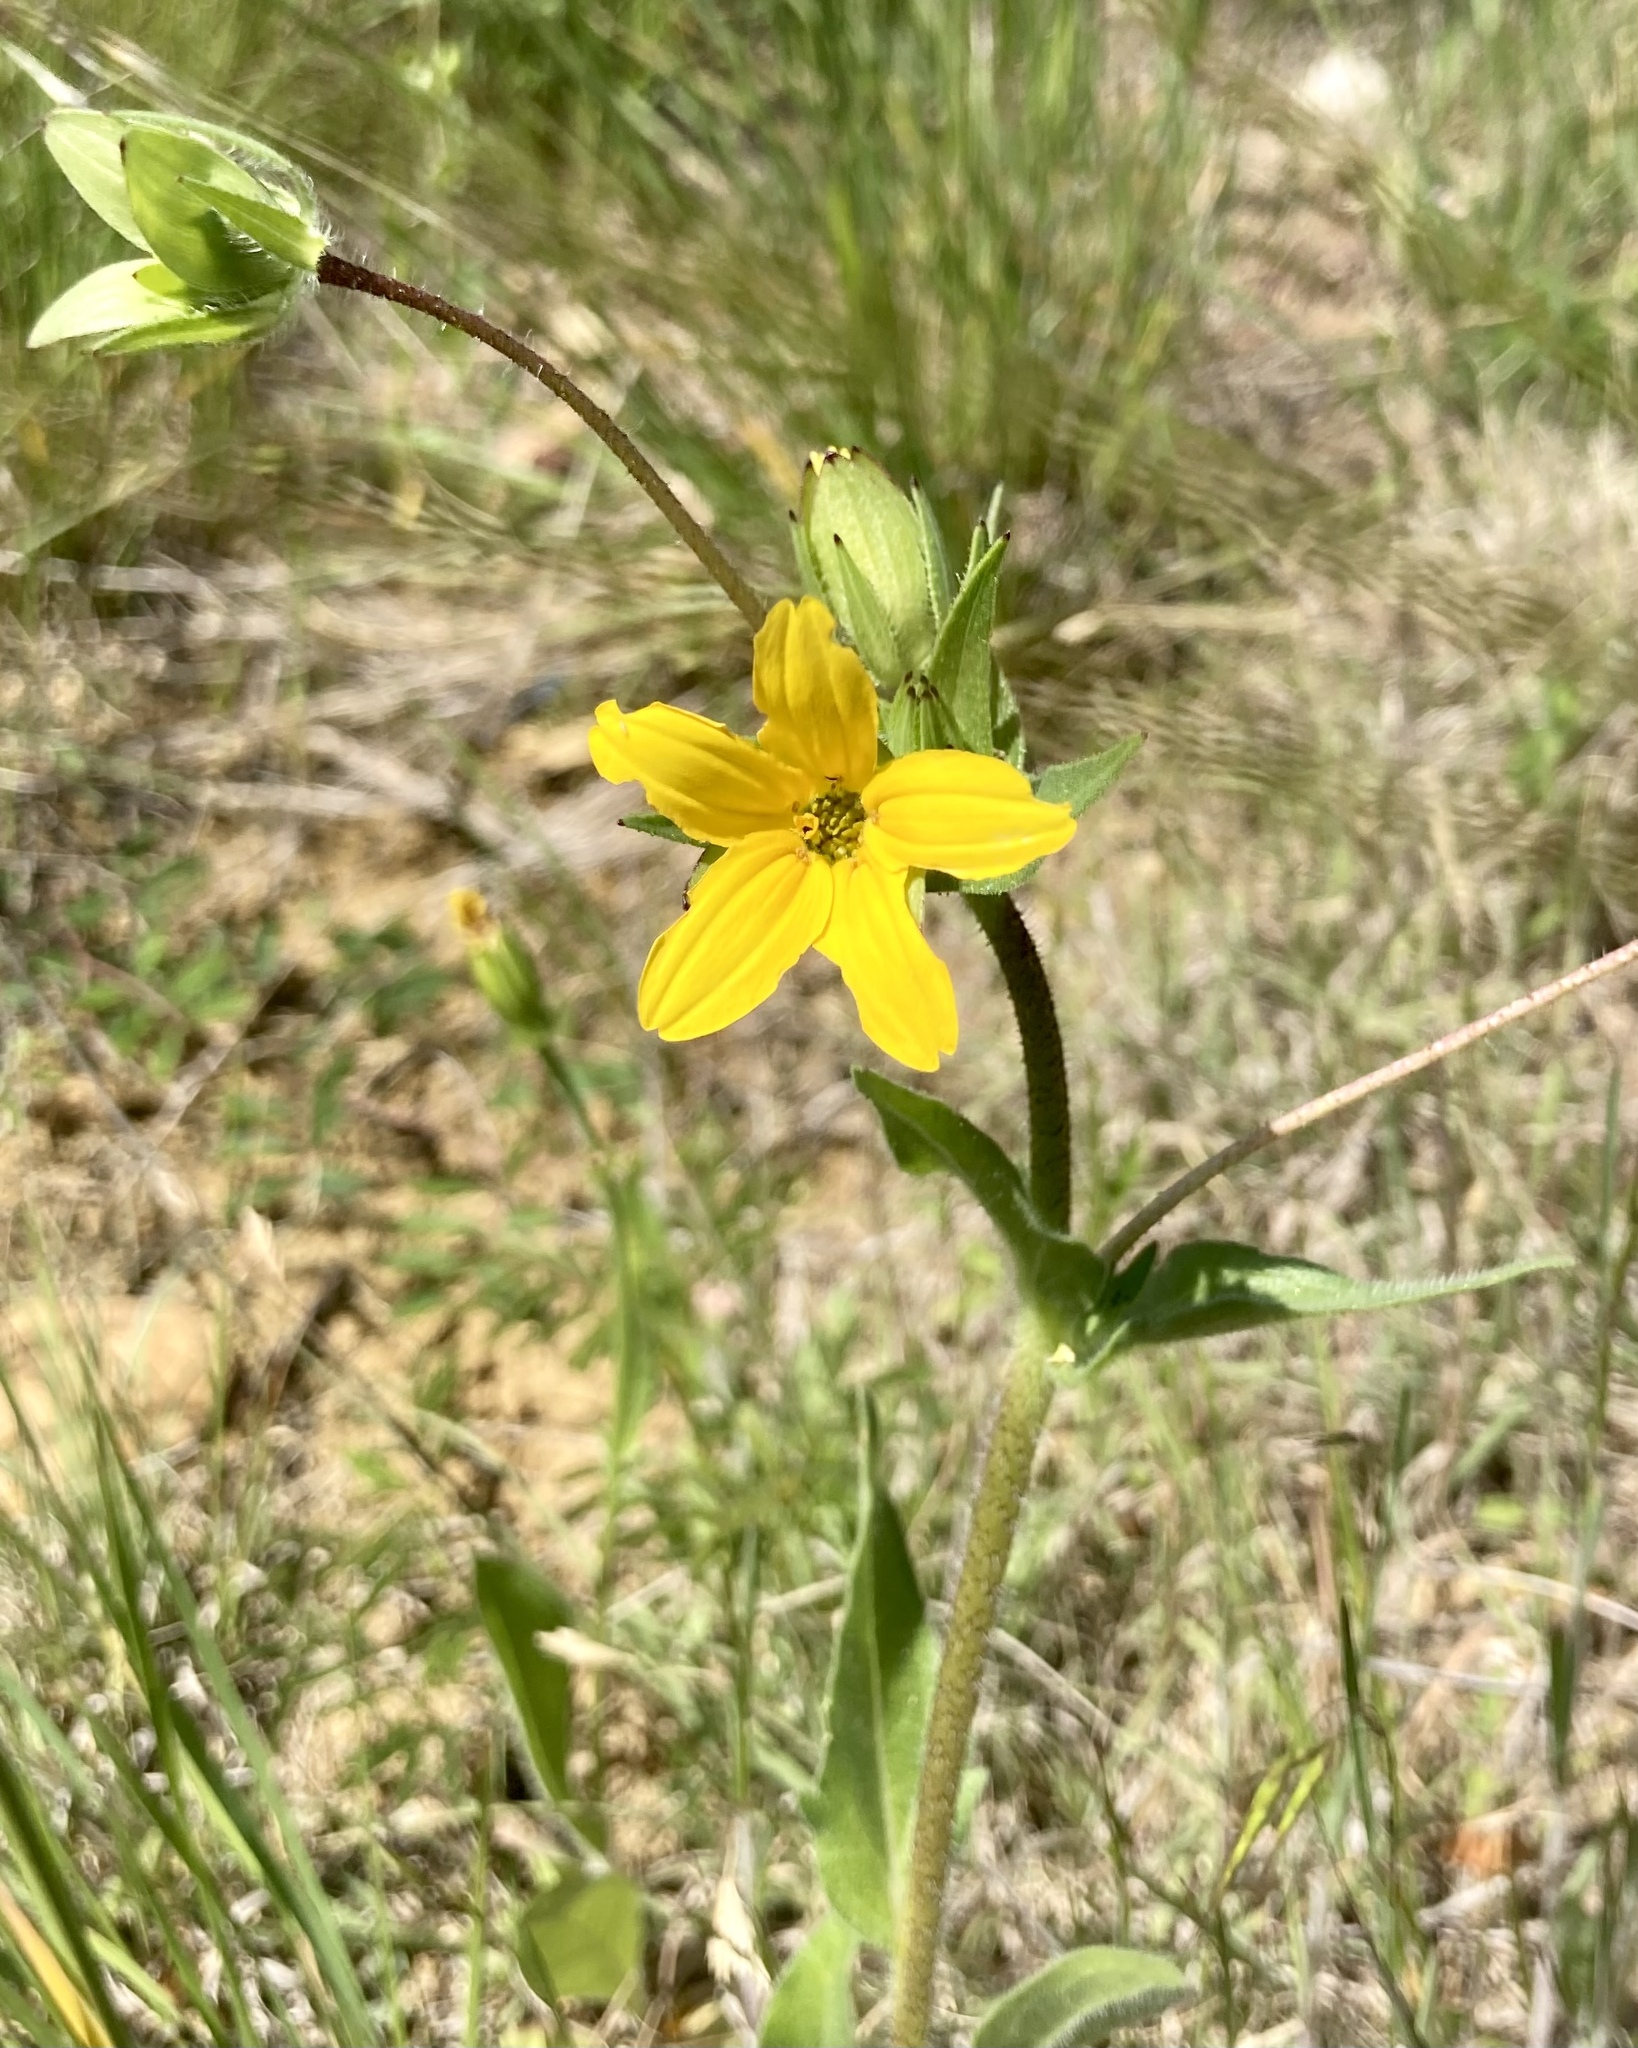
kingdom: Plantae
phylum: Tracheophyta
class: Magnoliopsida
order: Asterales
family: Asteraceae
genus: Lindheimera
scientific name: Lindheimera texana
